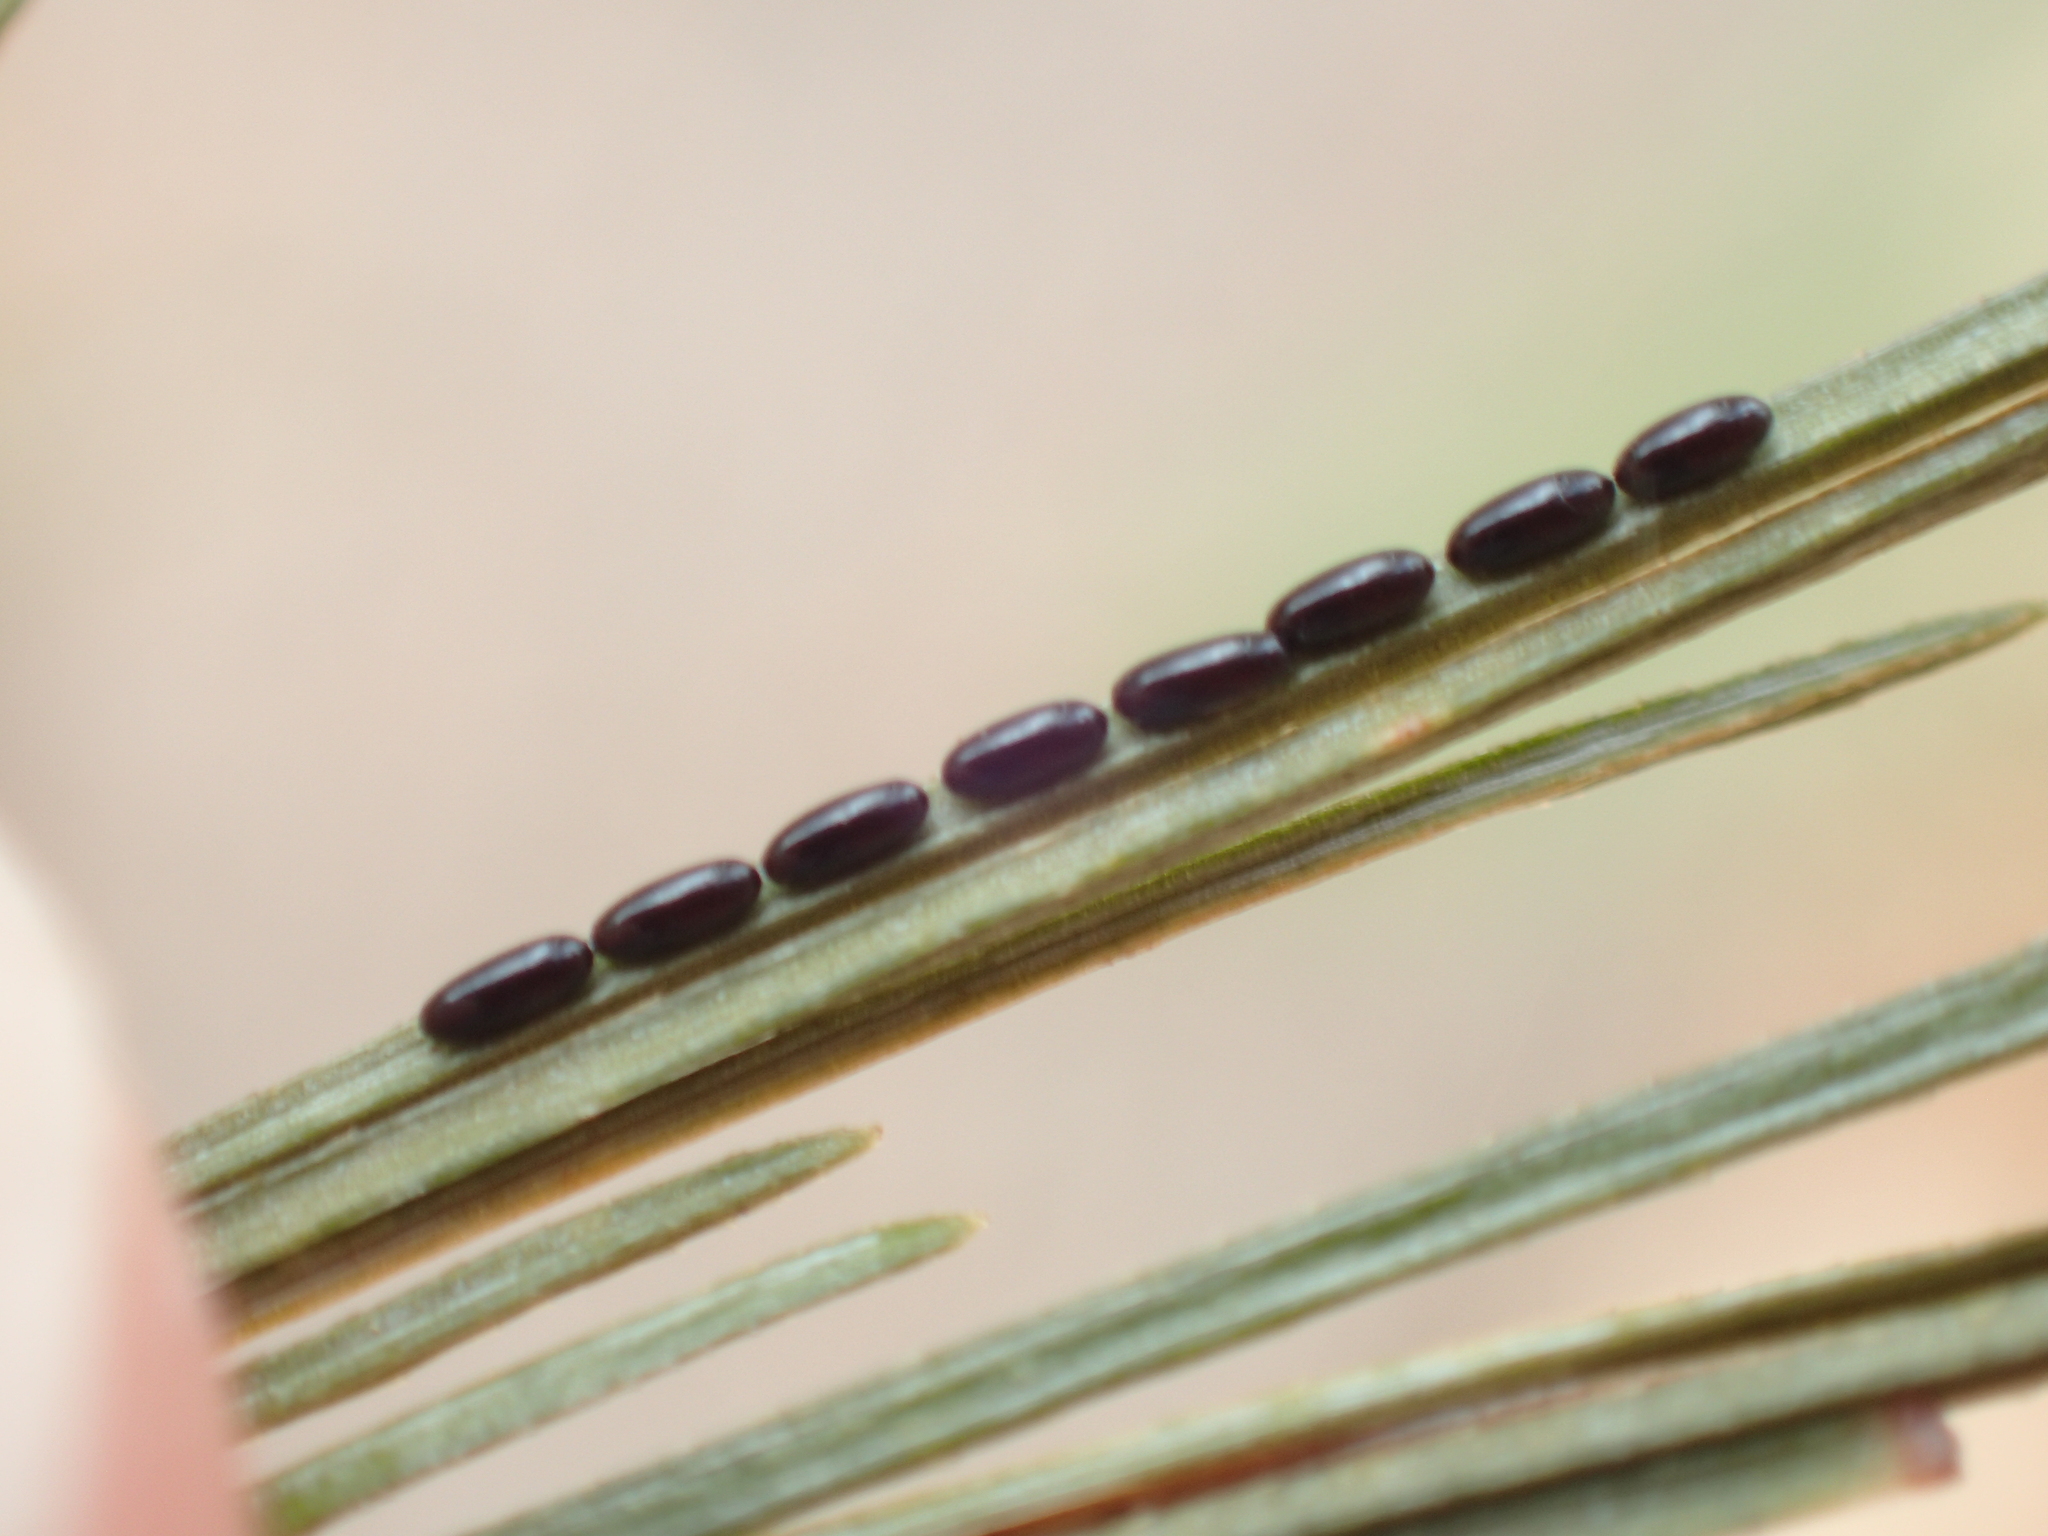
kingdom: Animalia
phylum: Arthropoda
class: Insecta
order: Hemiptera
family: Aphididae
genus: Cinara
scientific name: Cinara strobi
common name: White pine aphid
